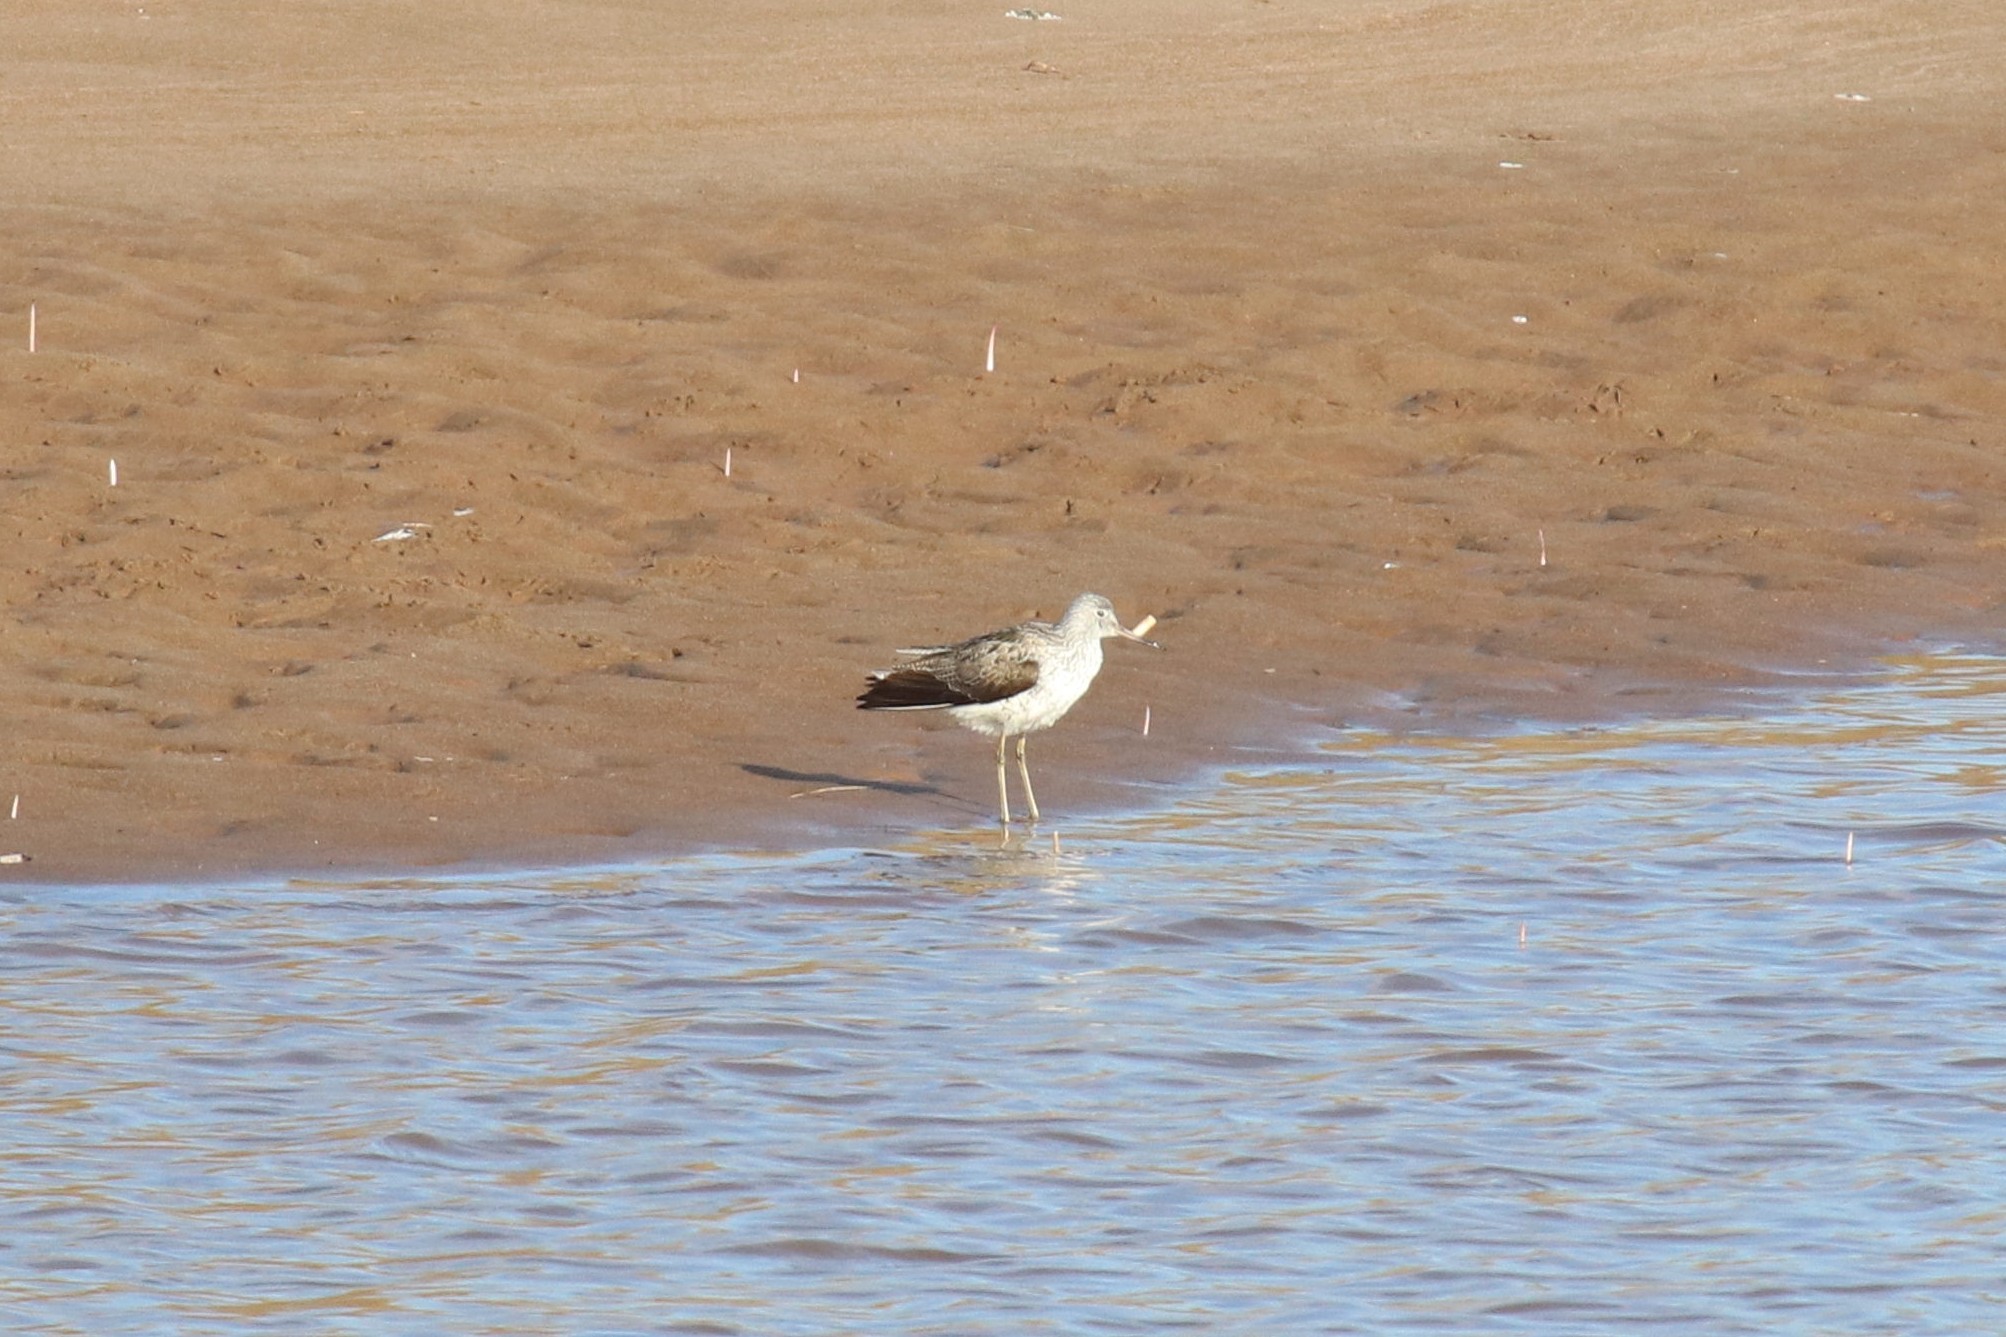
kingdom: Animalia
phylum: Chordata
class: Aves
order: Charadriiformes
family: Scolopacidae
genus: Tringa
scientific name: Tringa nebularia
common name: Common greenshank
